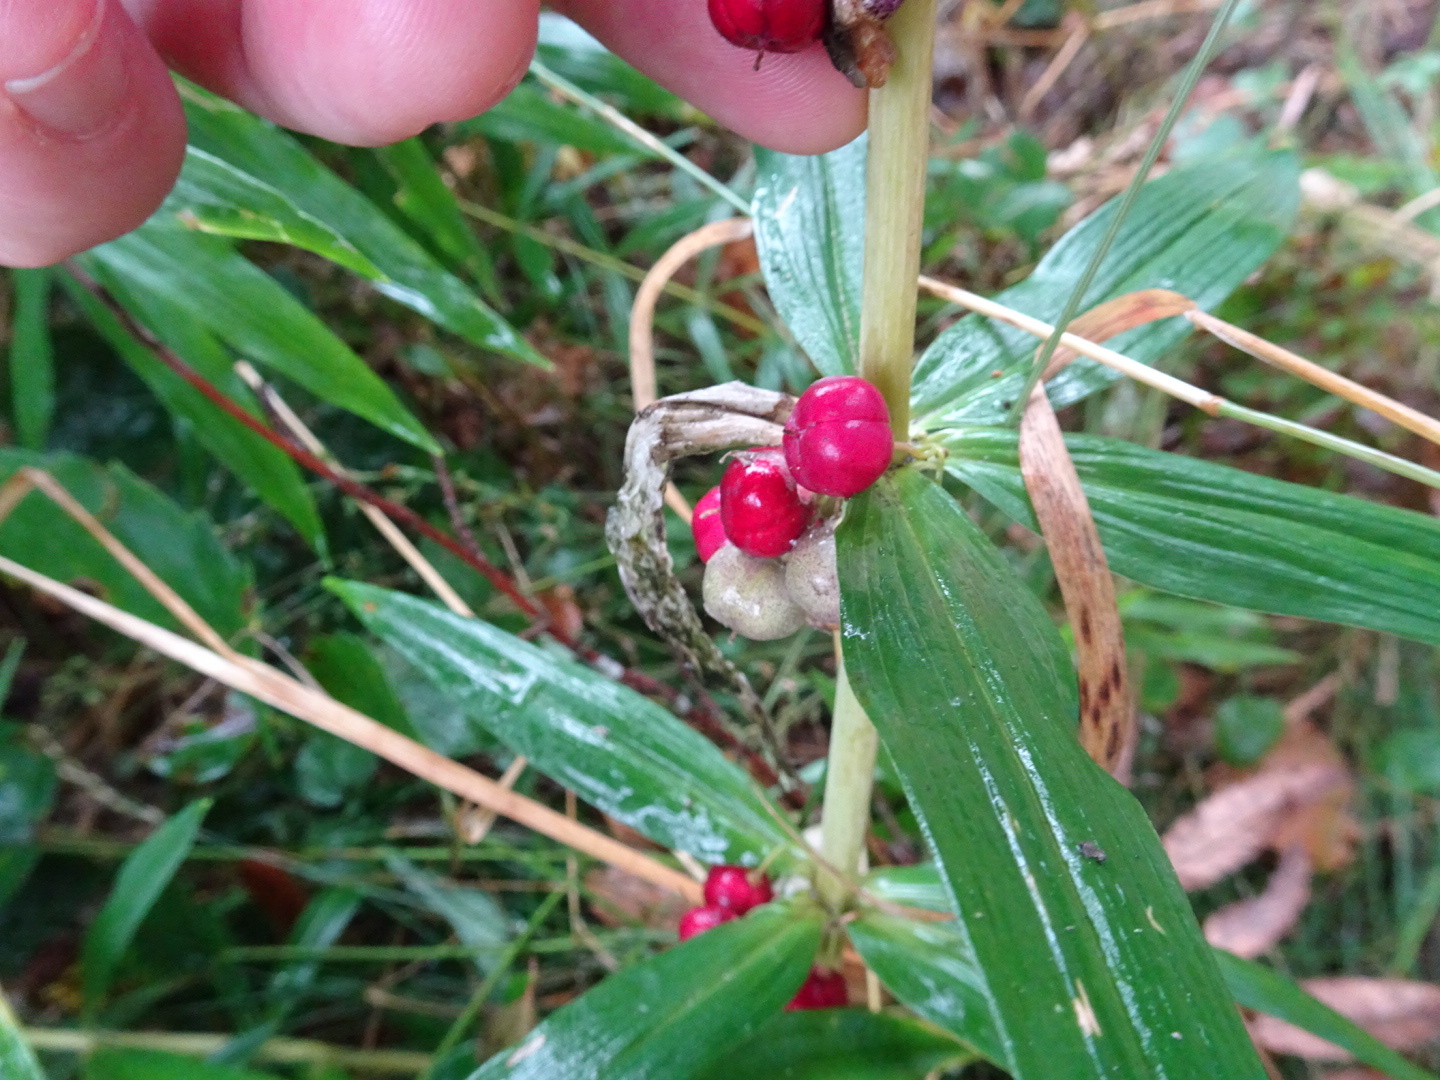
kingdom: Plantae
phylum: Tracheophyta
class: Liliopsida
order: Asparagales
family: Asparagaceae
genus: Polygonatum
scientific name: Polygonatum verticillatum
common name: Whorled solomon's-seal
